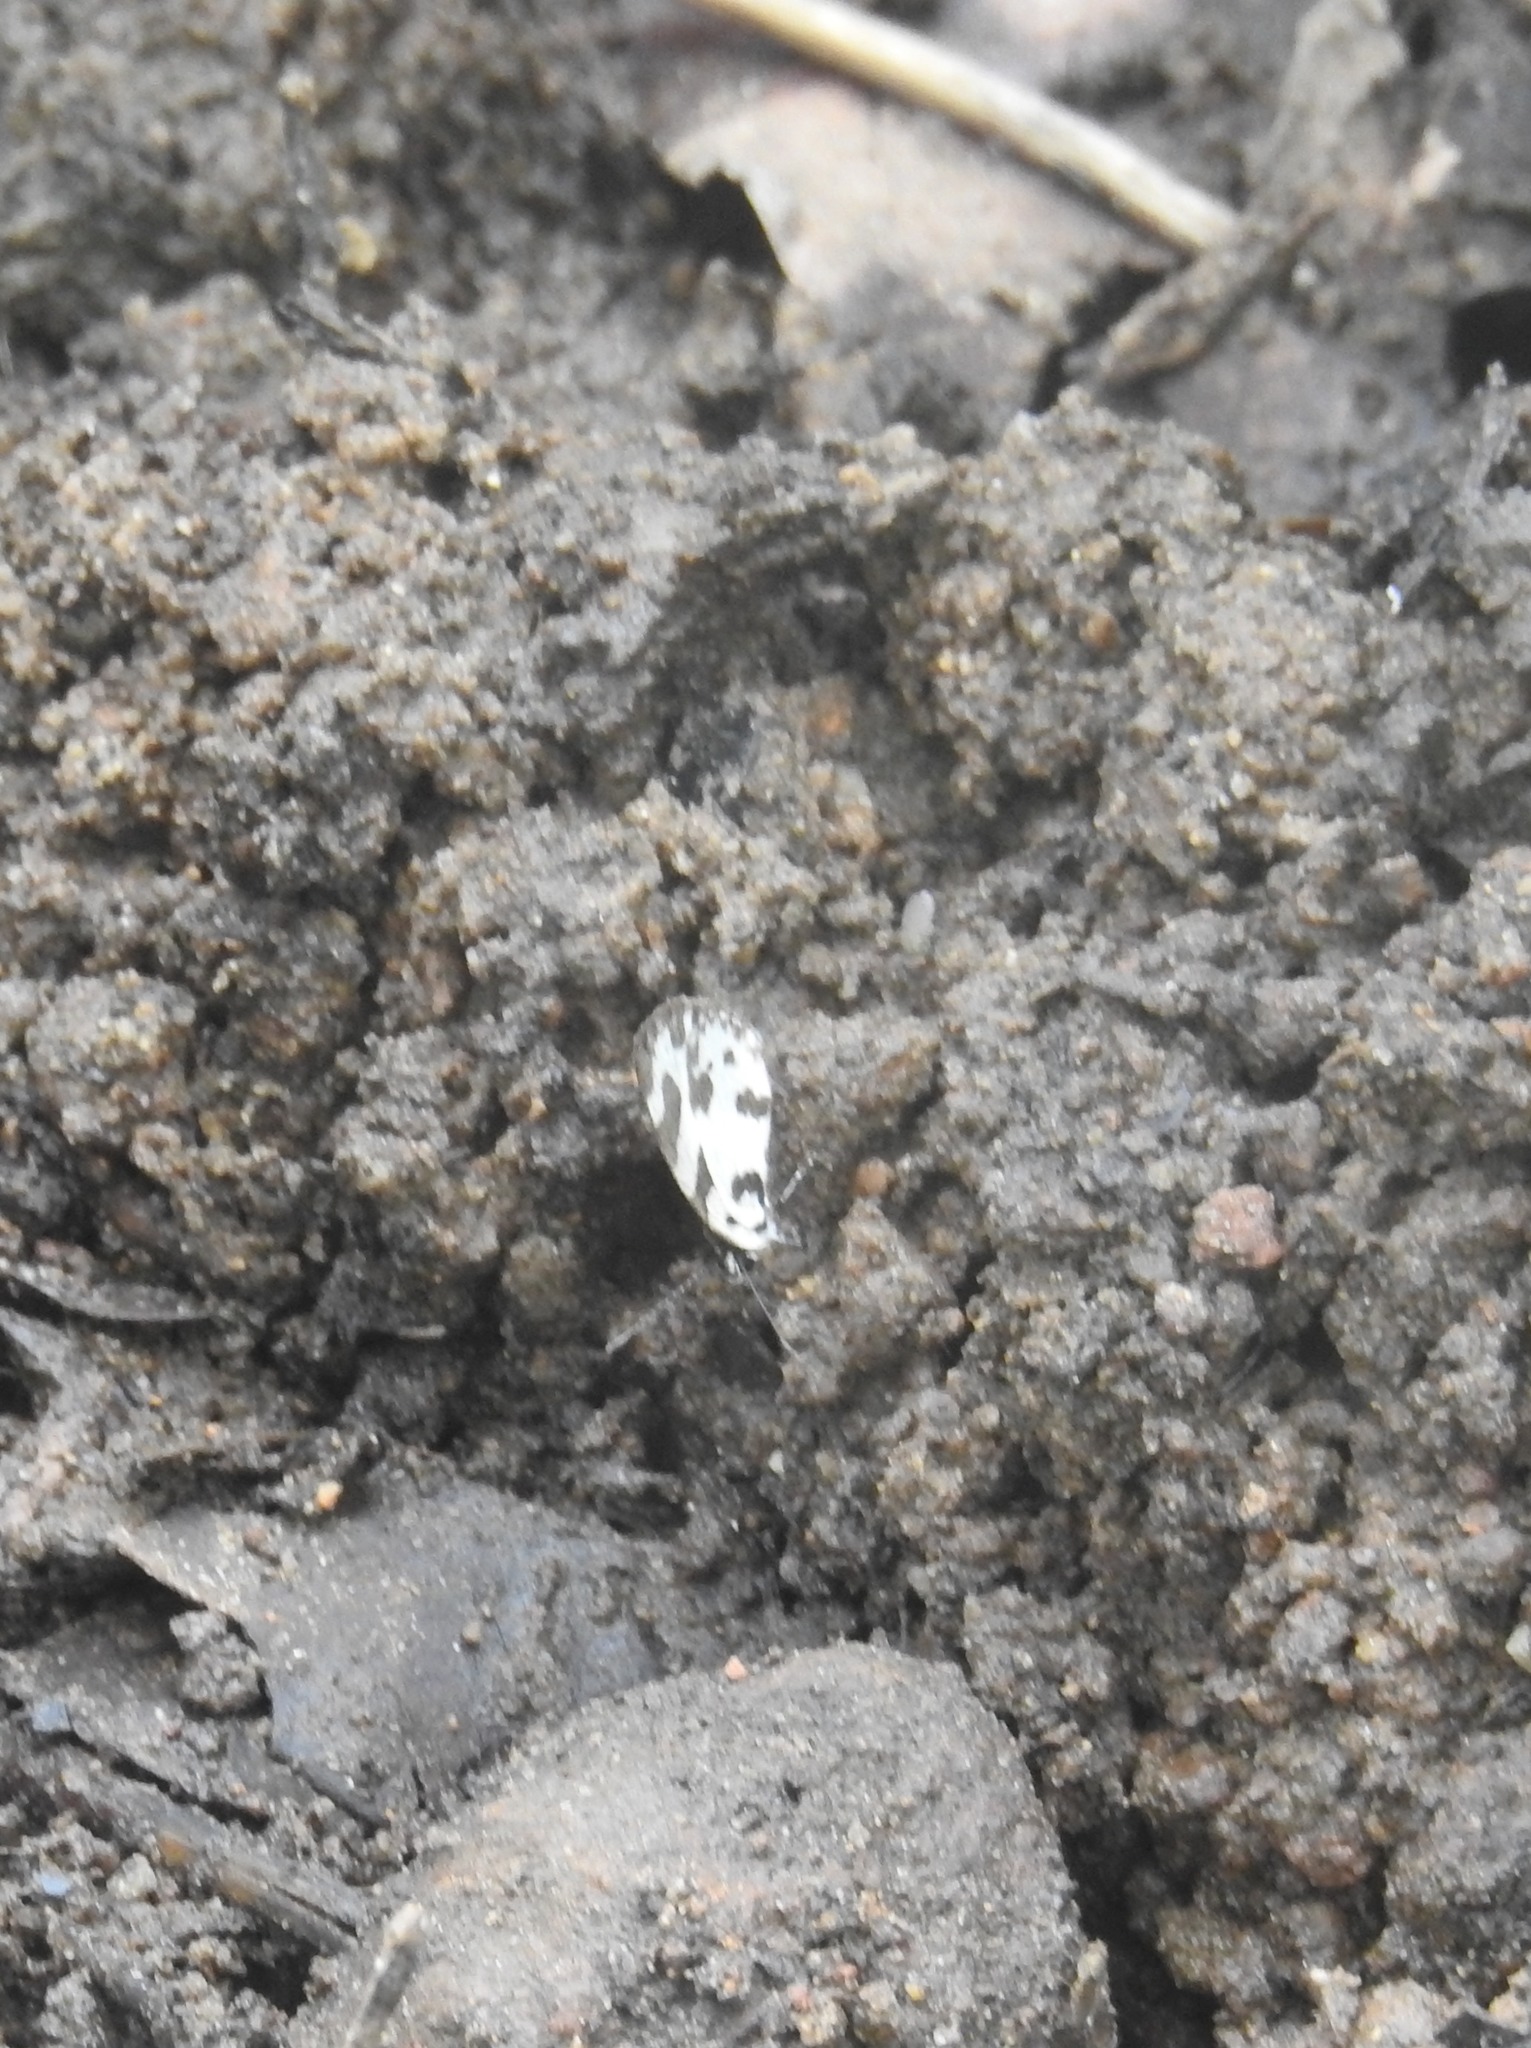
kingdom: Animalia
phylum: Arthropoda
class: Insecta
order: Lepidoptera
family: Lycaenidae
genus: Caleta
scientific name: Caleta decidia
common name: Angled pierrot
